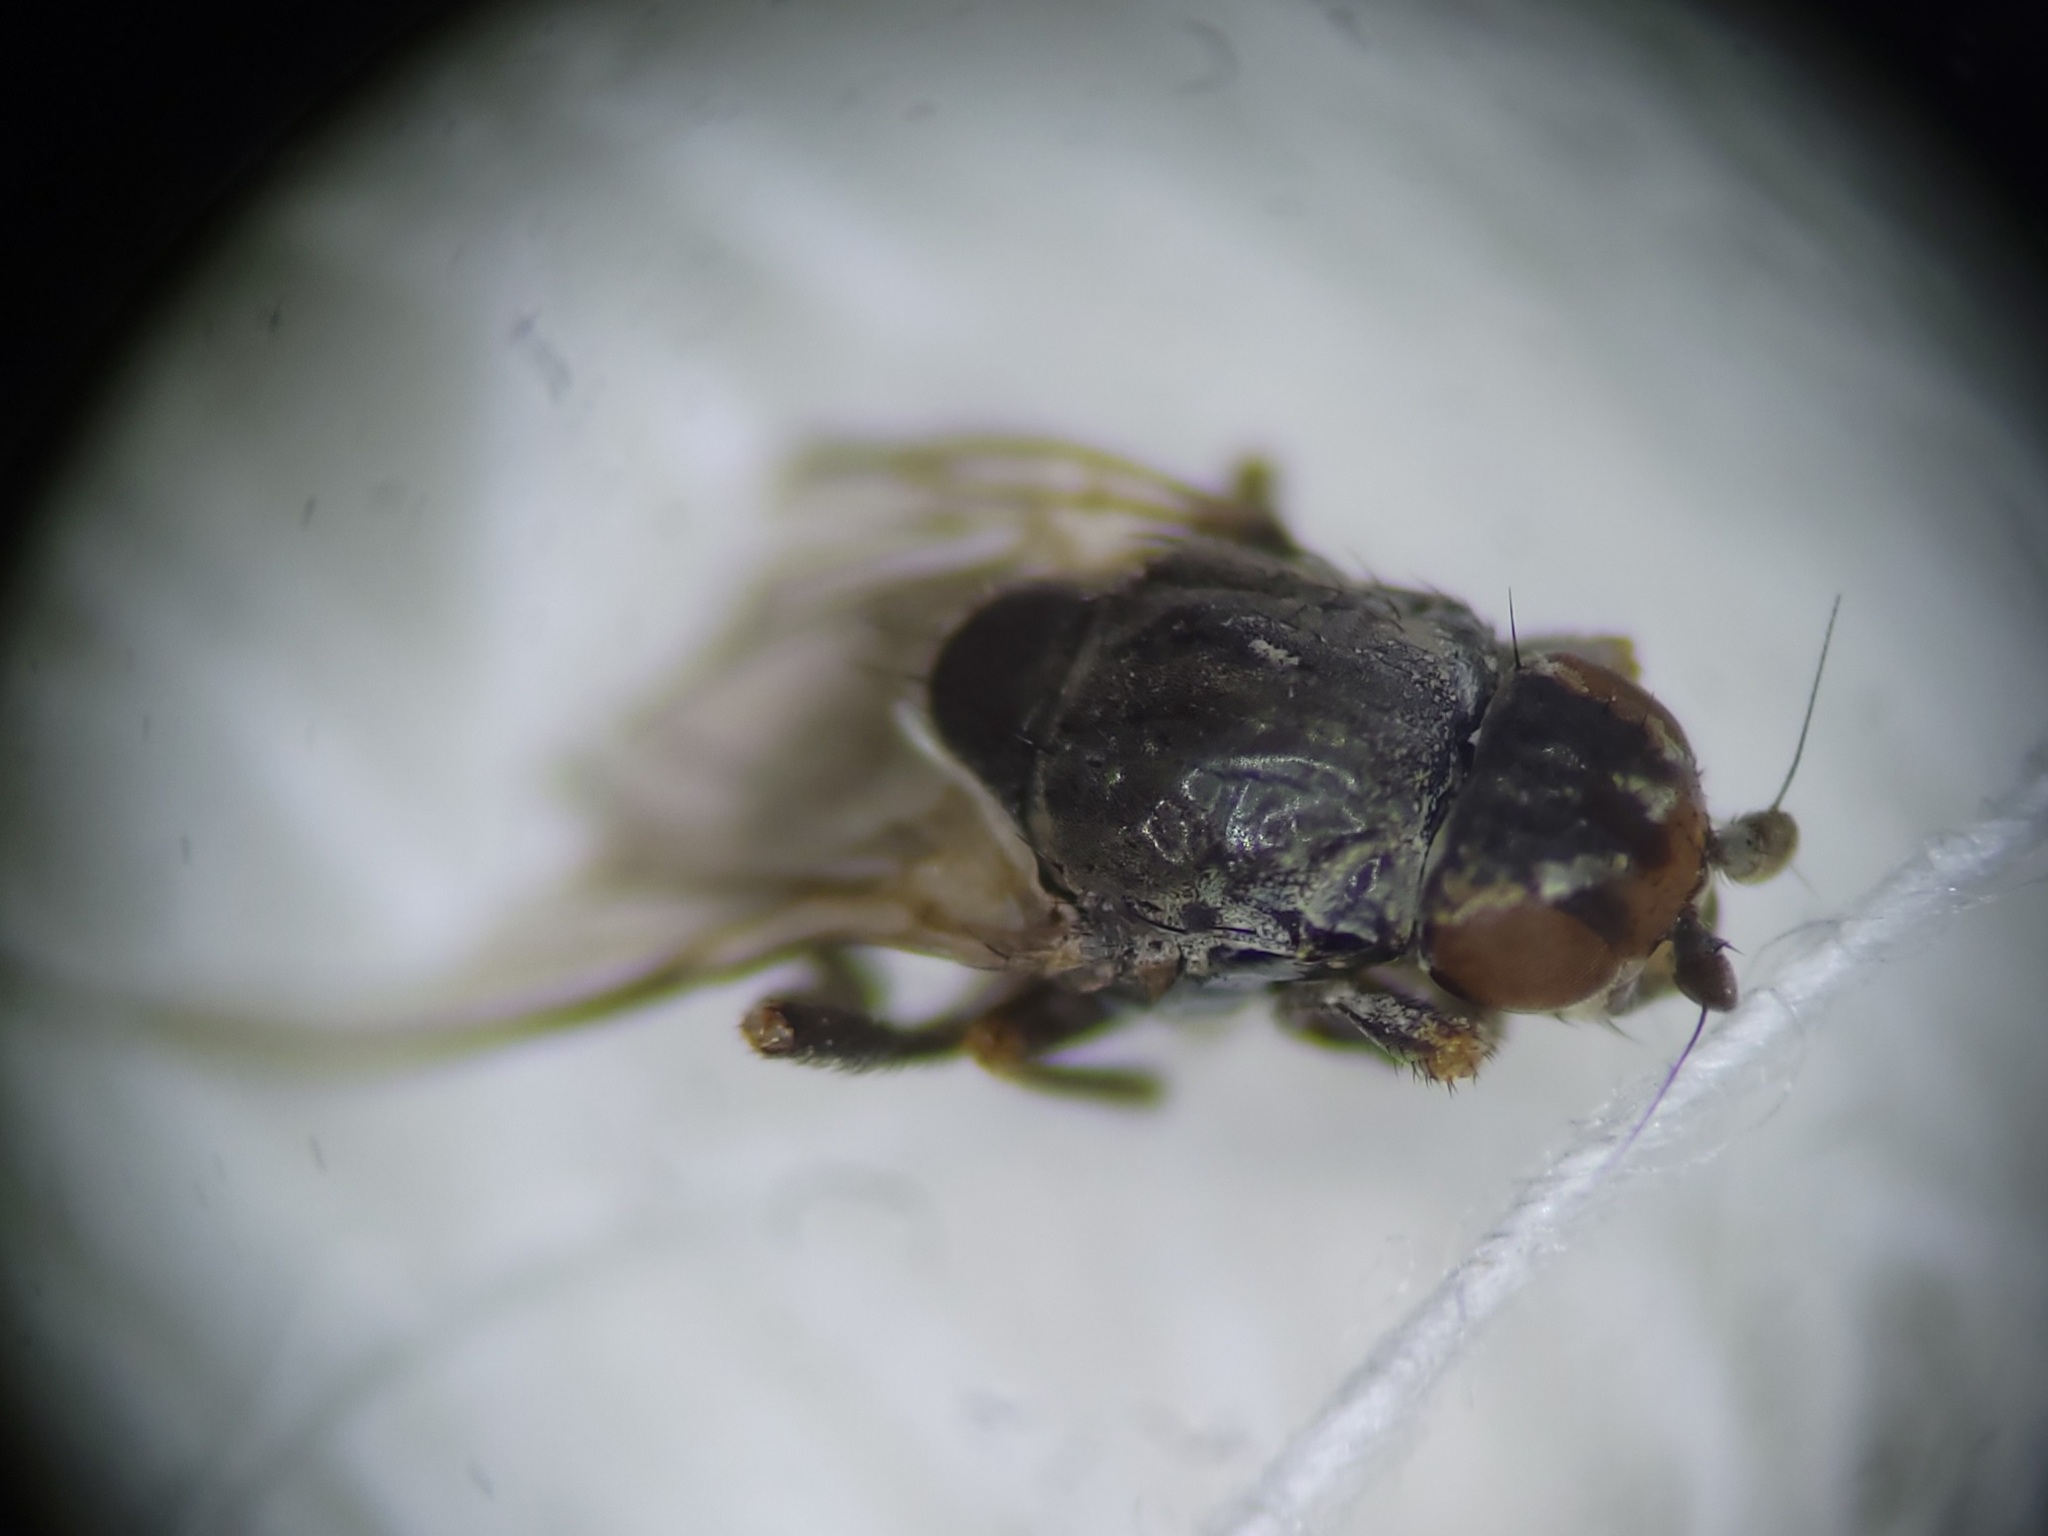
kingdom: Animalia
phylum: Arthropoda
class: Insecta
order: Diptera
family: Sphaeroceridae
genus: Lotophila
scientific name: Lotophila atra
